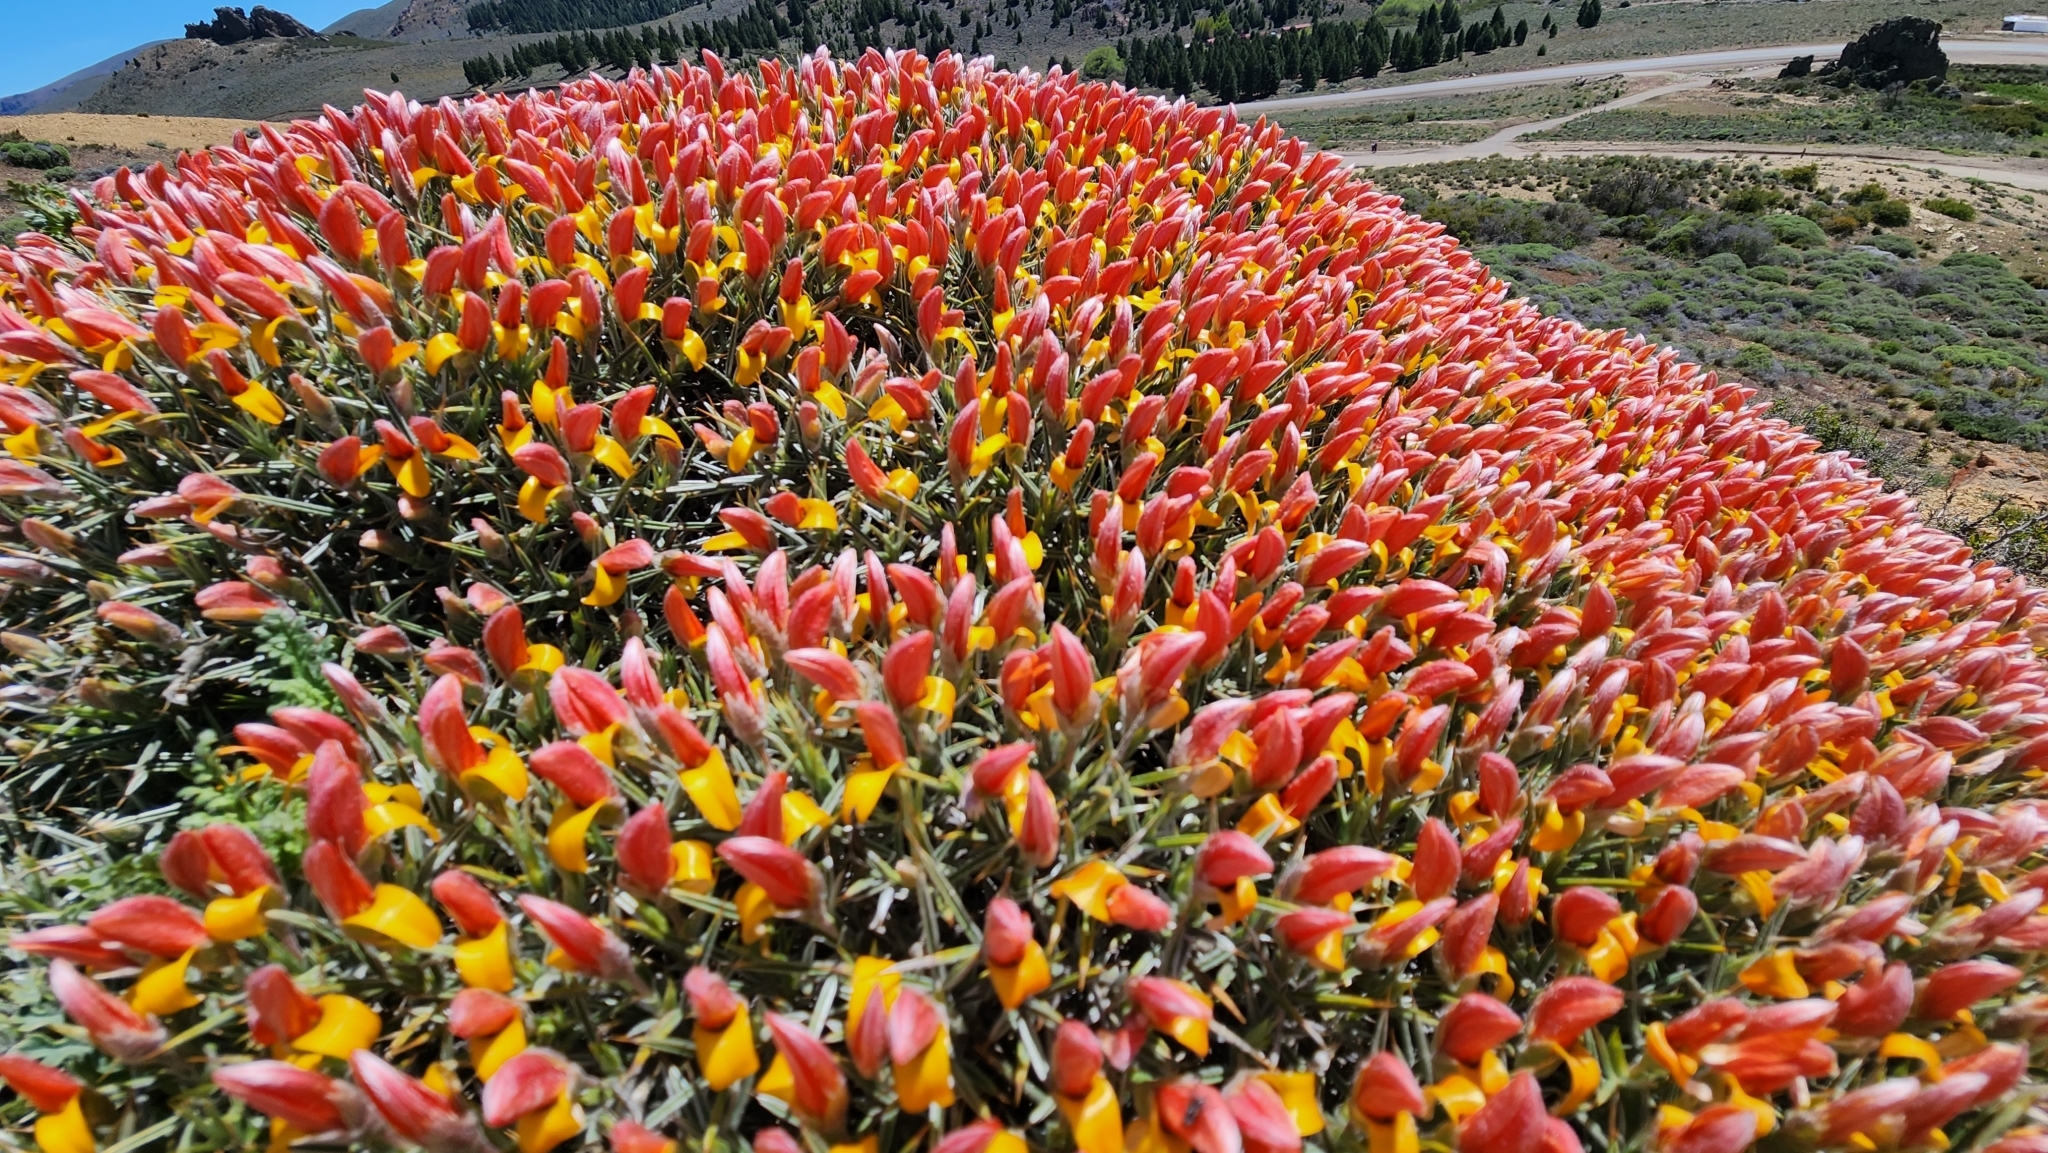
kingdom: Plantae
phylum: Tracheophyta
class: Magnoliopsida
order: Fabales
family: Fabaceae
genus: Anarthrophyllum
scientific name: Anarthrophyllum strigulipetalum
